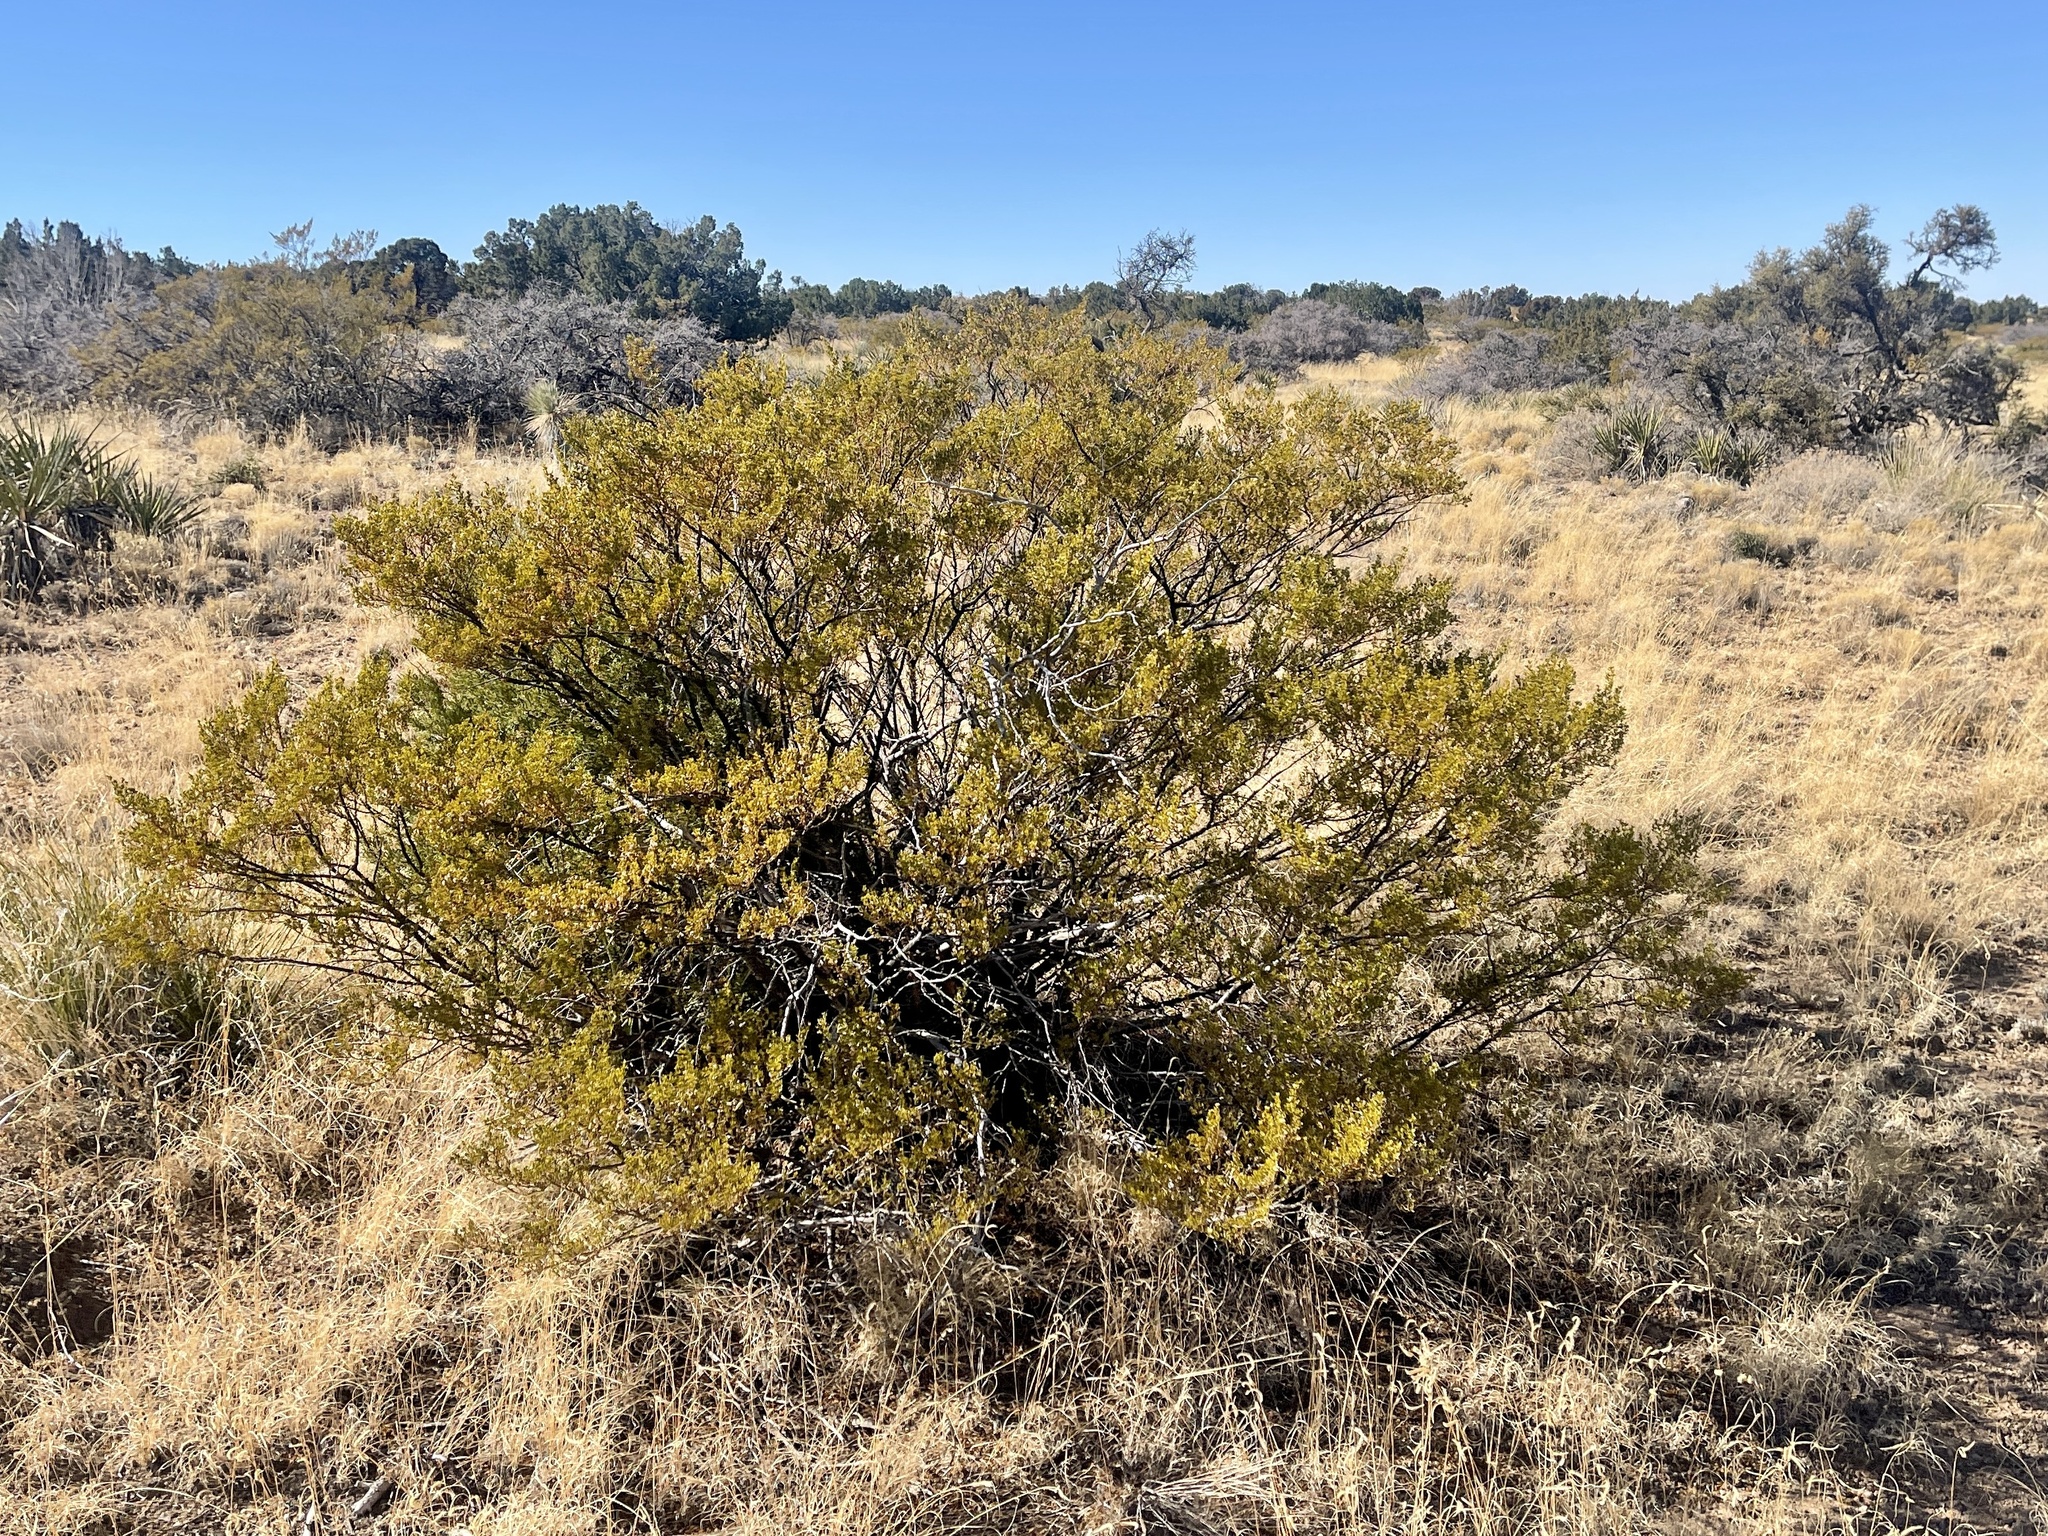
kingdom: Plantae
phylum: Tracheophyta
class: Magnoliopsida
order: Zygophyllales
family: Zygophyllaceae
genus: Larrea
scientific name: Larrea tridentata
